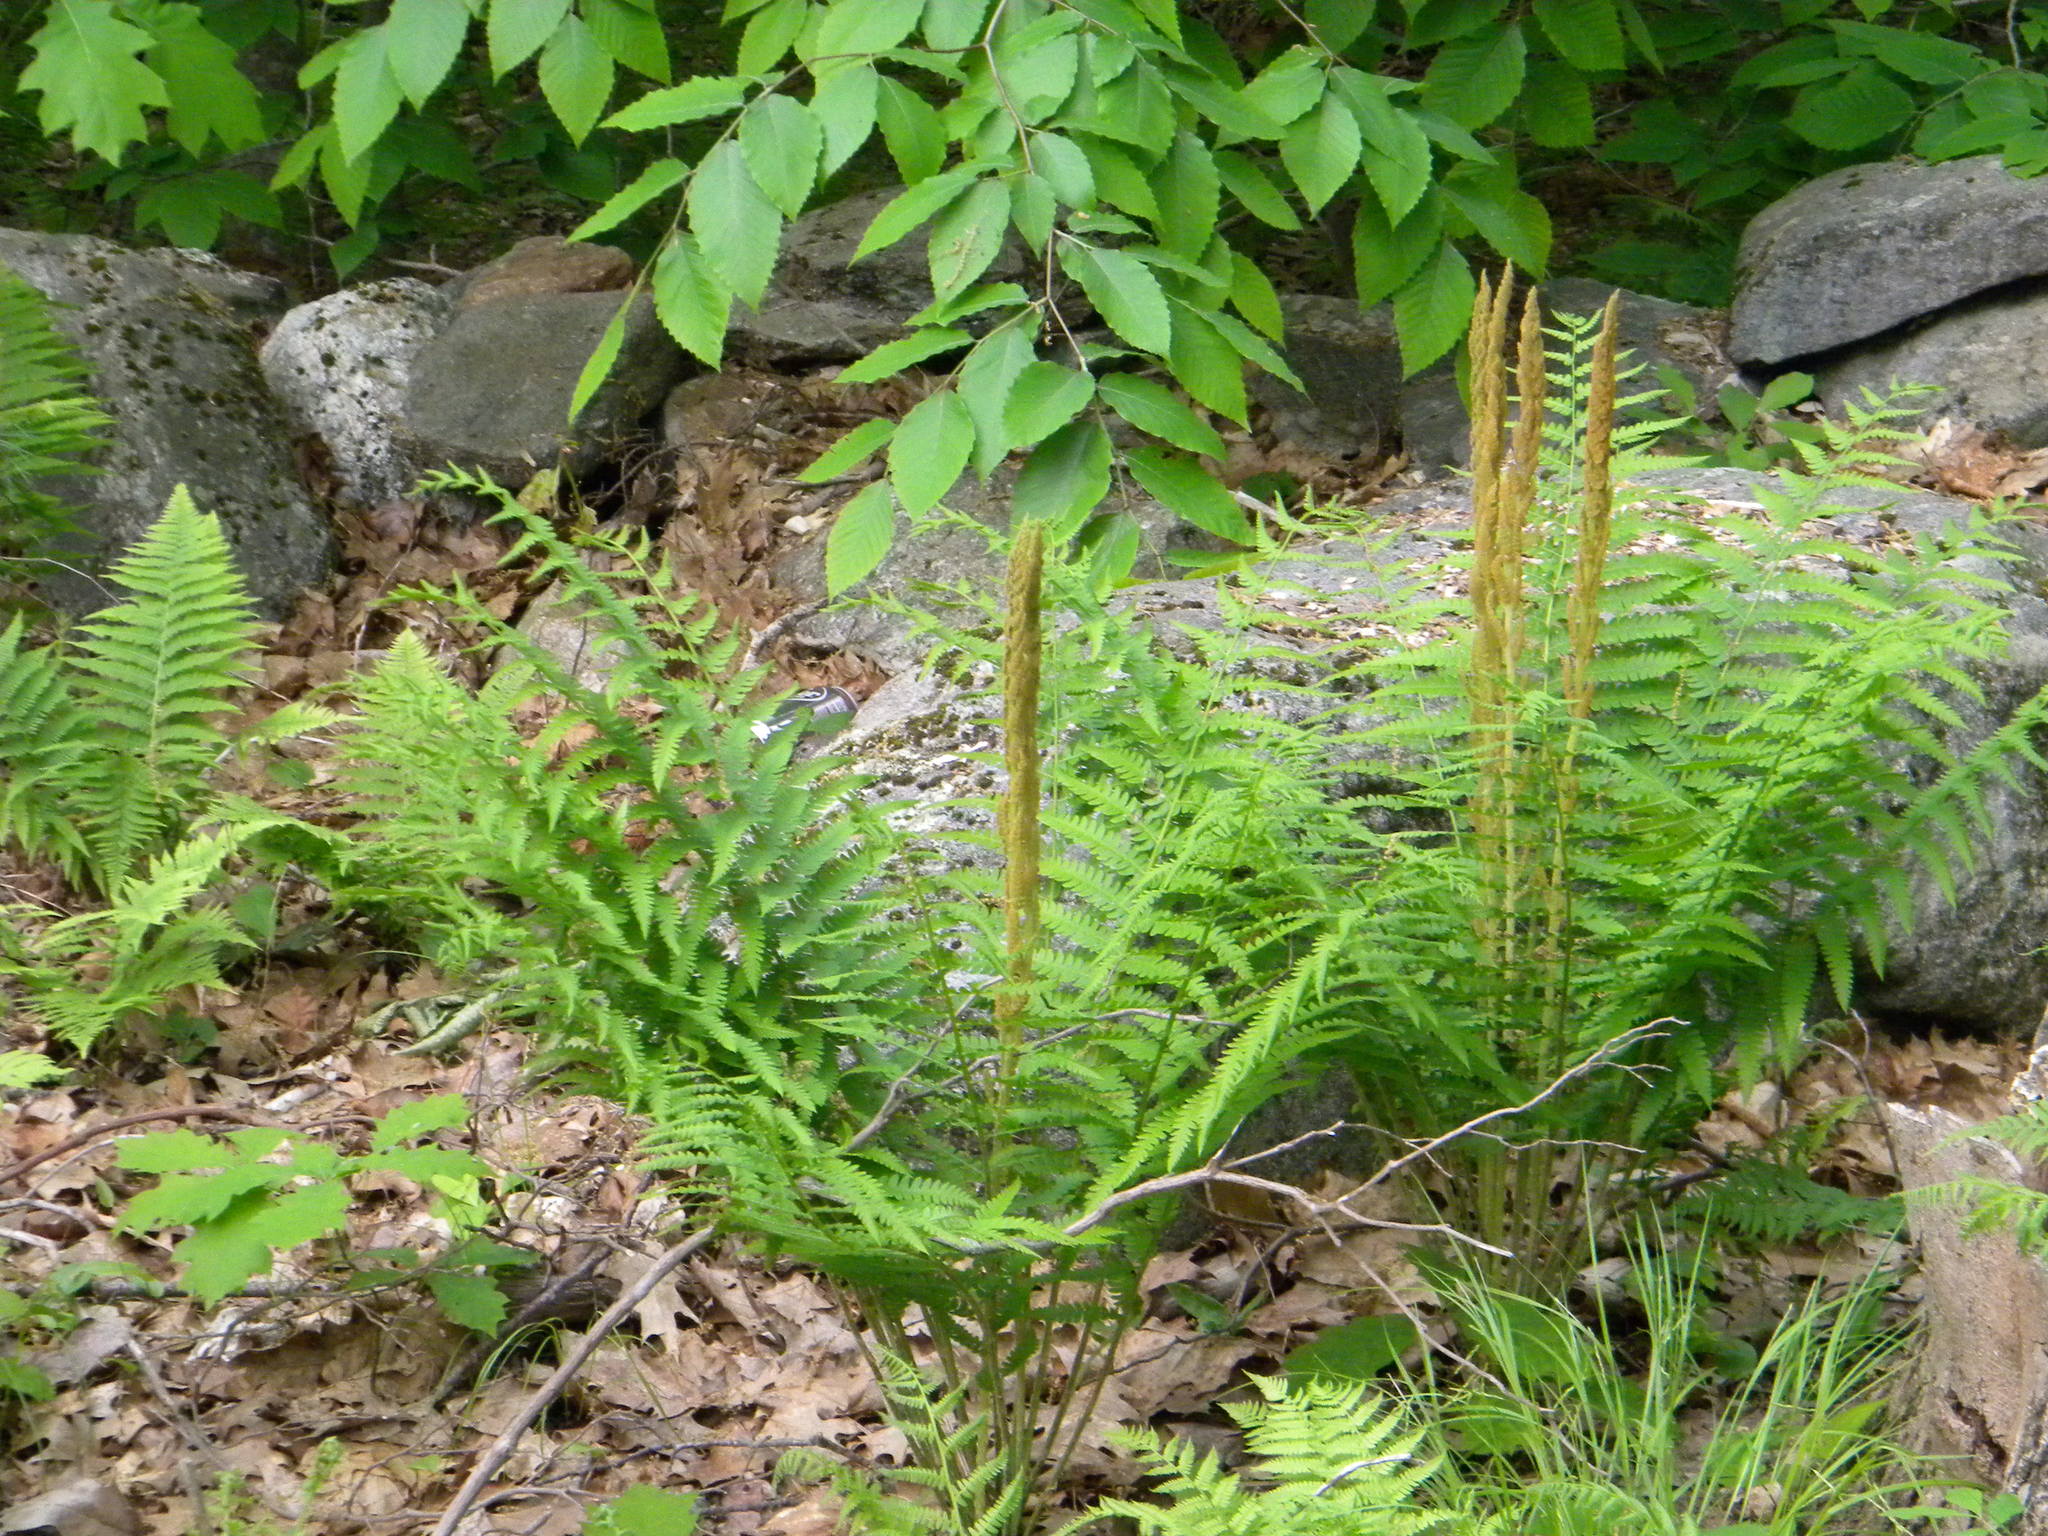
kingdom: Plantae
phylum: Tracheophyta
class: Polypodiopsida
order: Osmundales
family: Osmundaceae
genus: Osmundastrum
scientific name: Osmundastrum cinnamomeum
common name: Cinnamon fern
